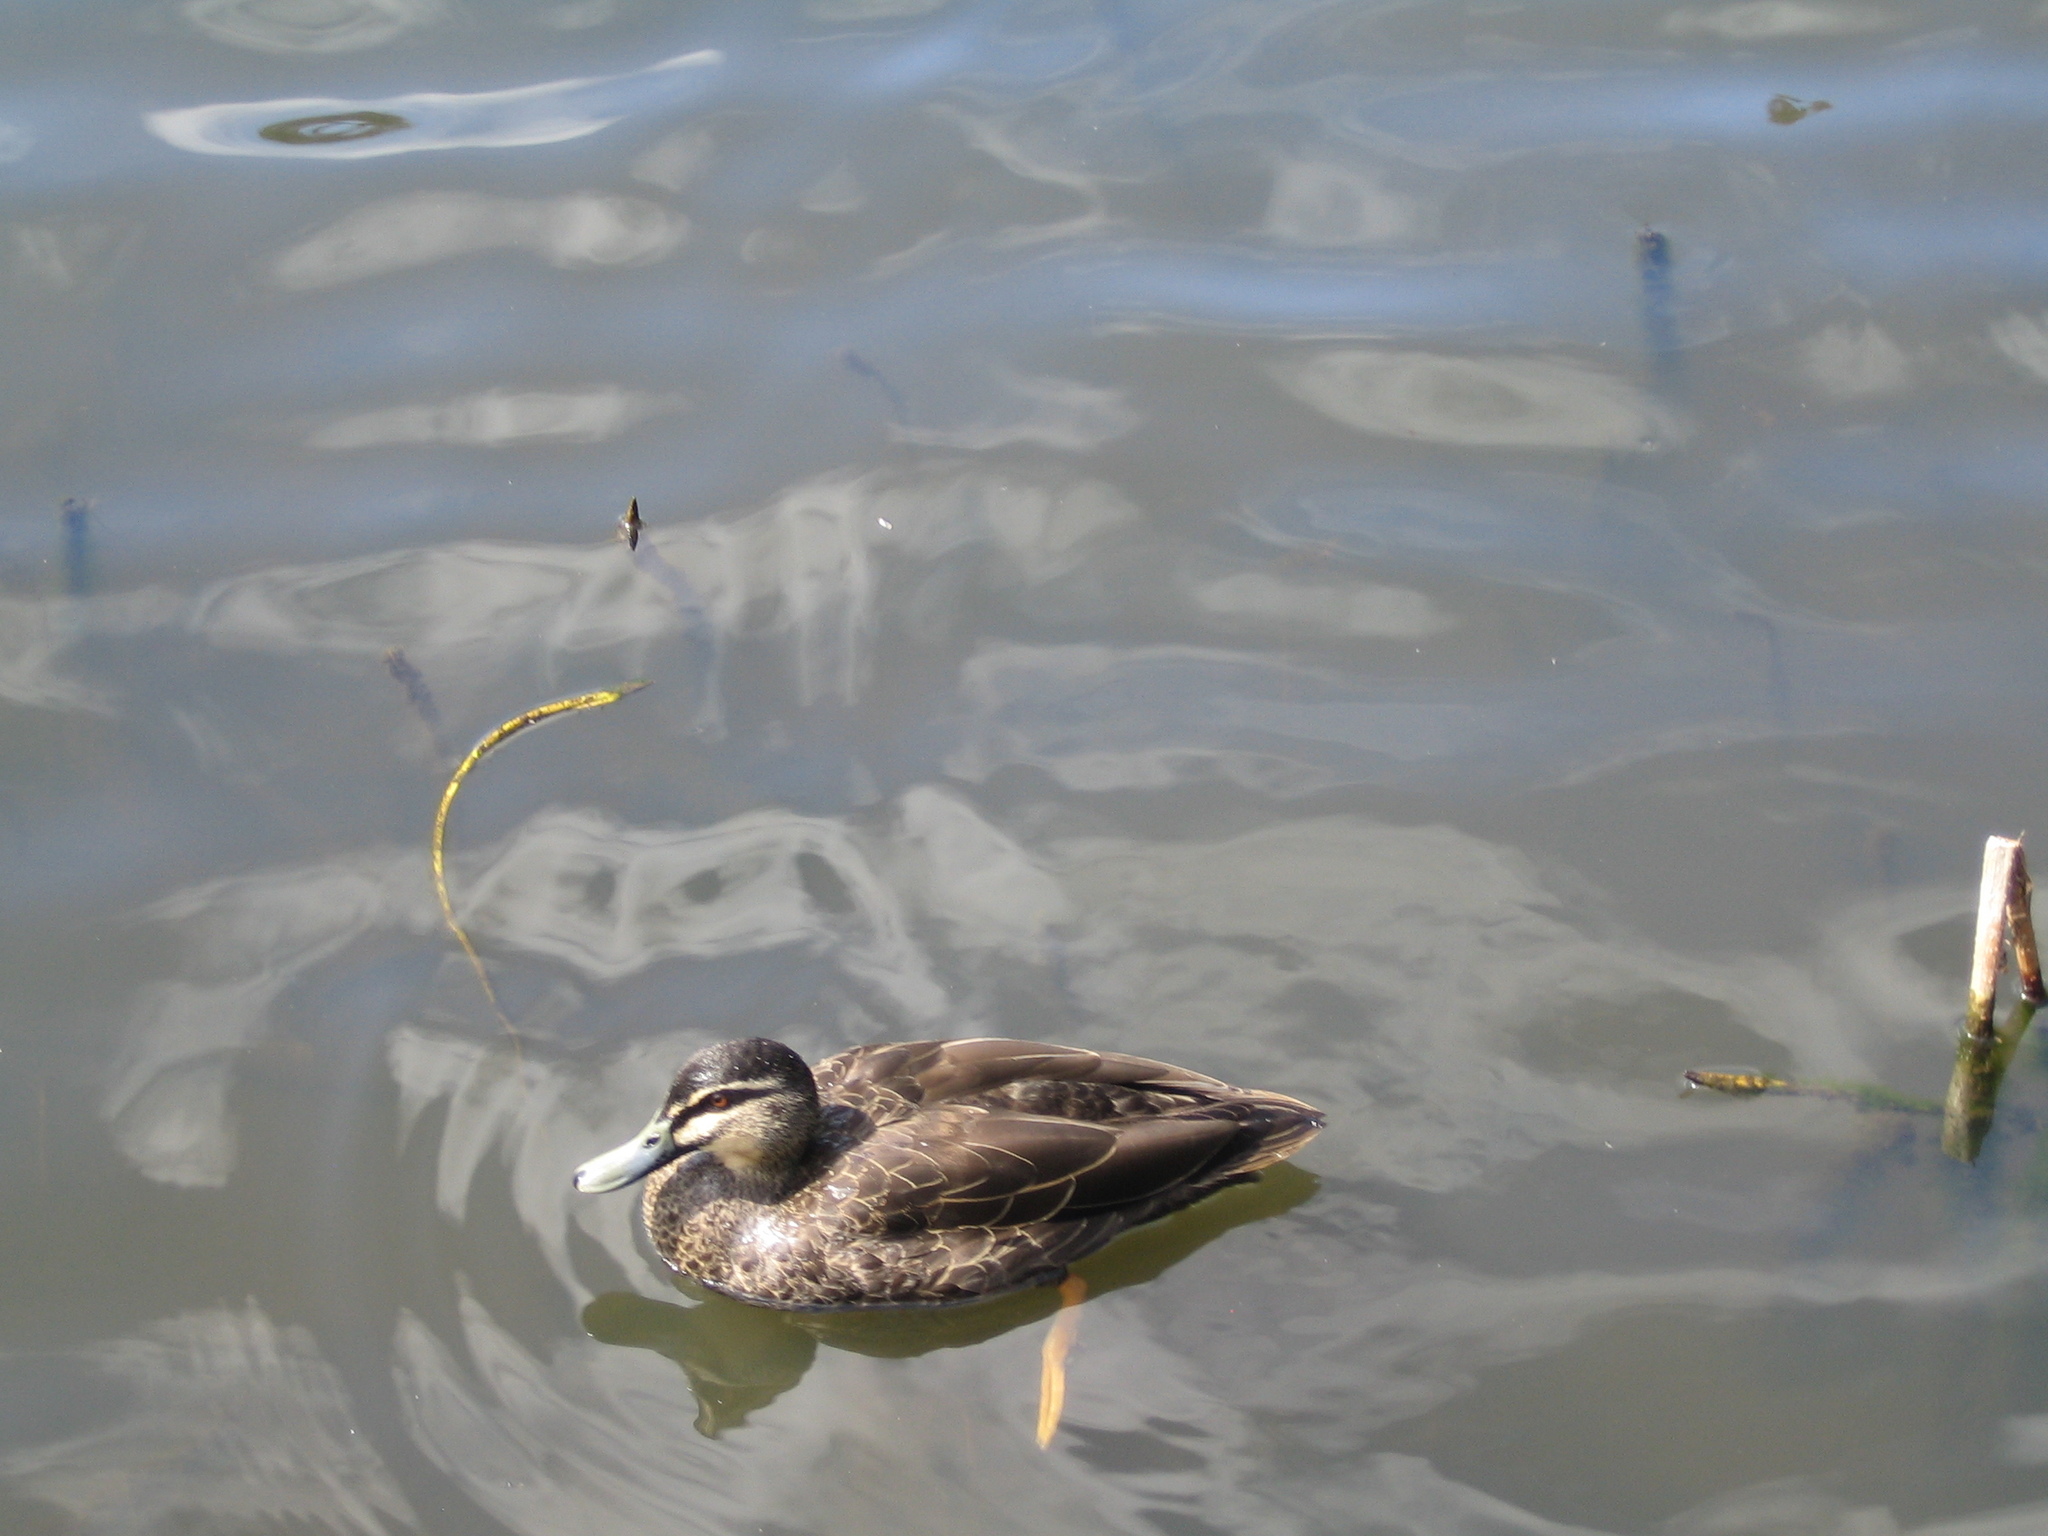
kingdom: Animalia
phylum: Chordata
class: Aves
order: Anseriformes
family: Anatidae
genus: Anas
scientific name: Anas
